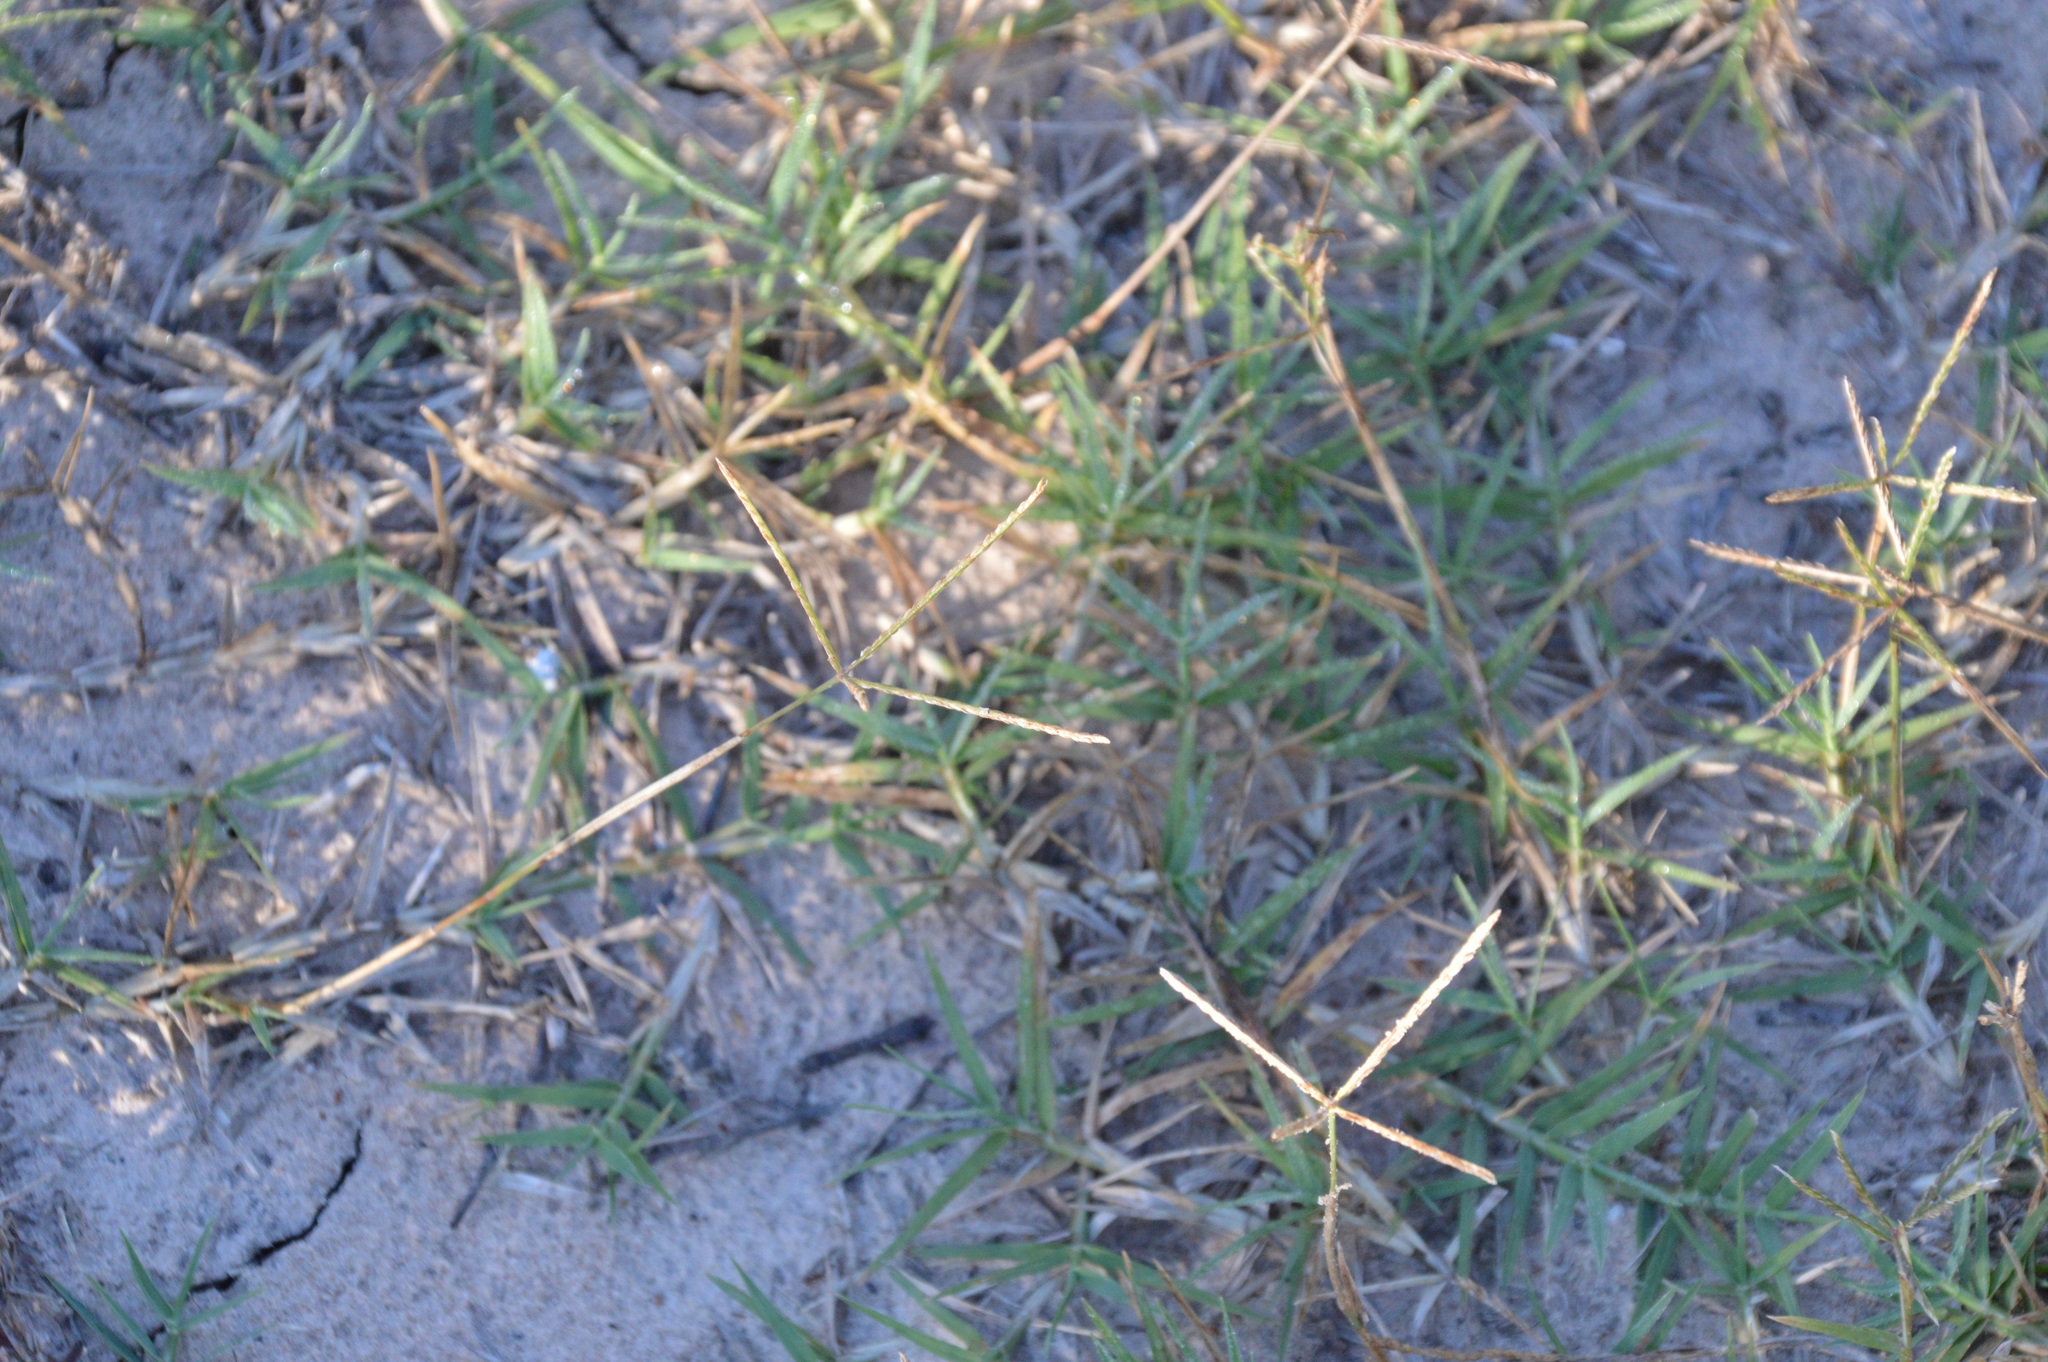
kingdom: Plantae
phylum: Tracheophyta
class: Liliopsida
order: Poales
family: Poaceae
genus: Cynodon
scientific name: Cynodon dactylon
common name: Bermuda grass
